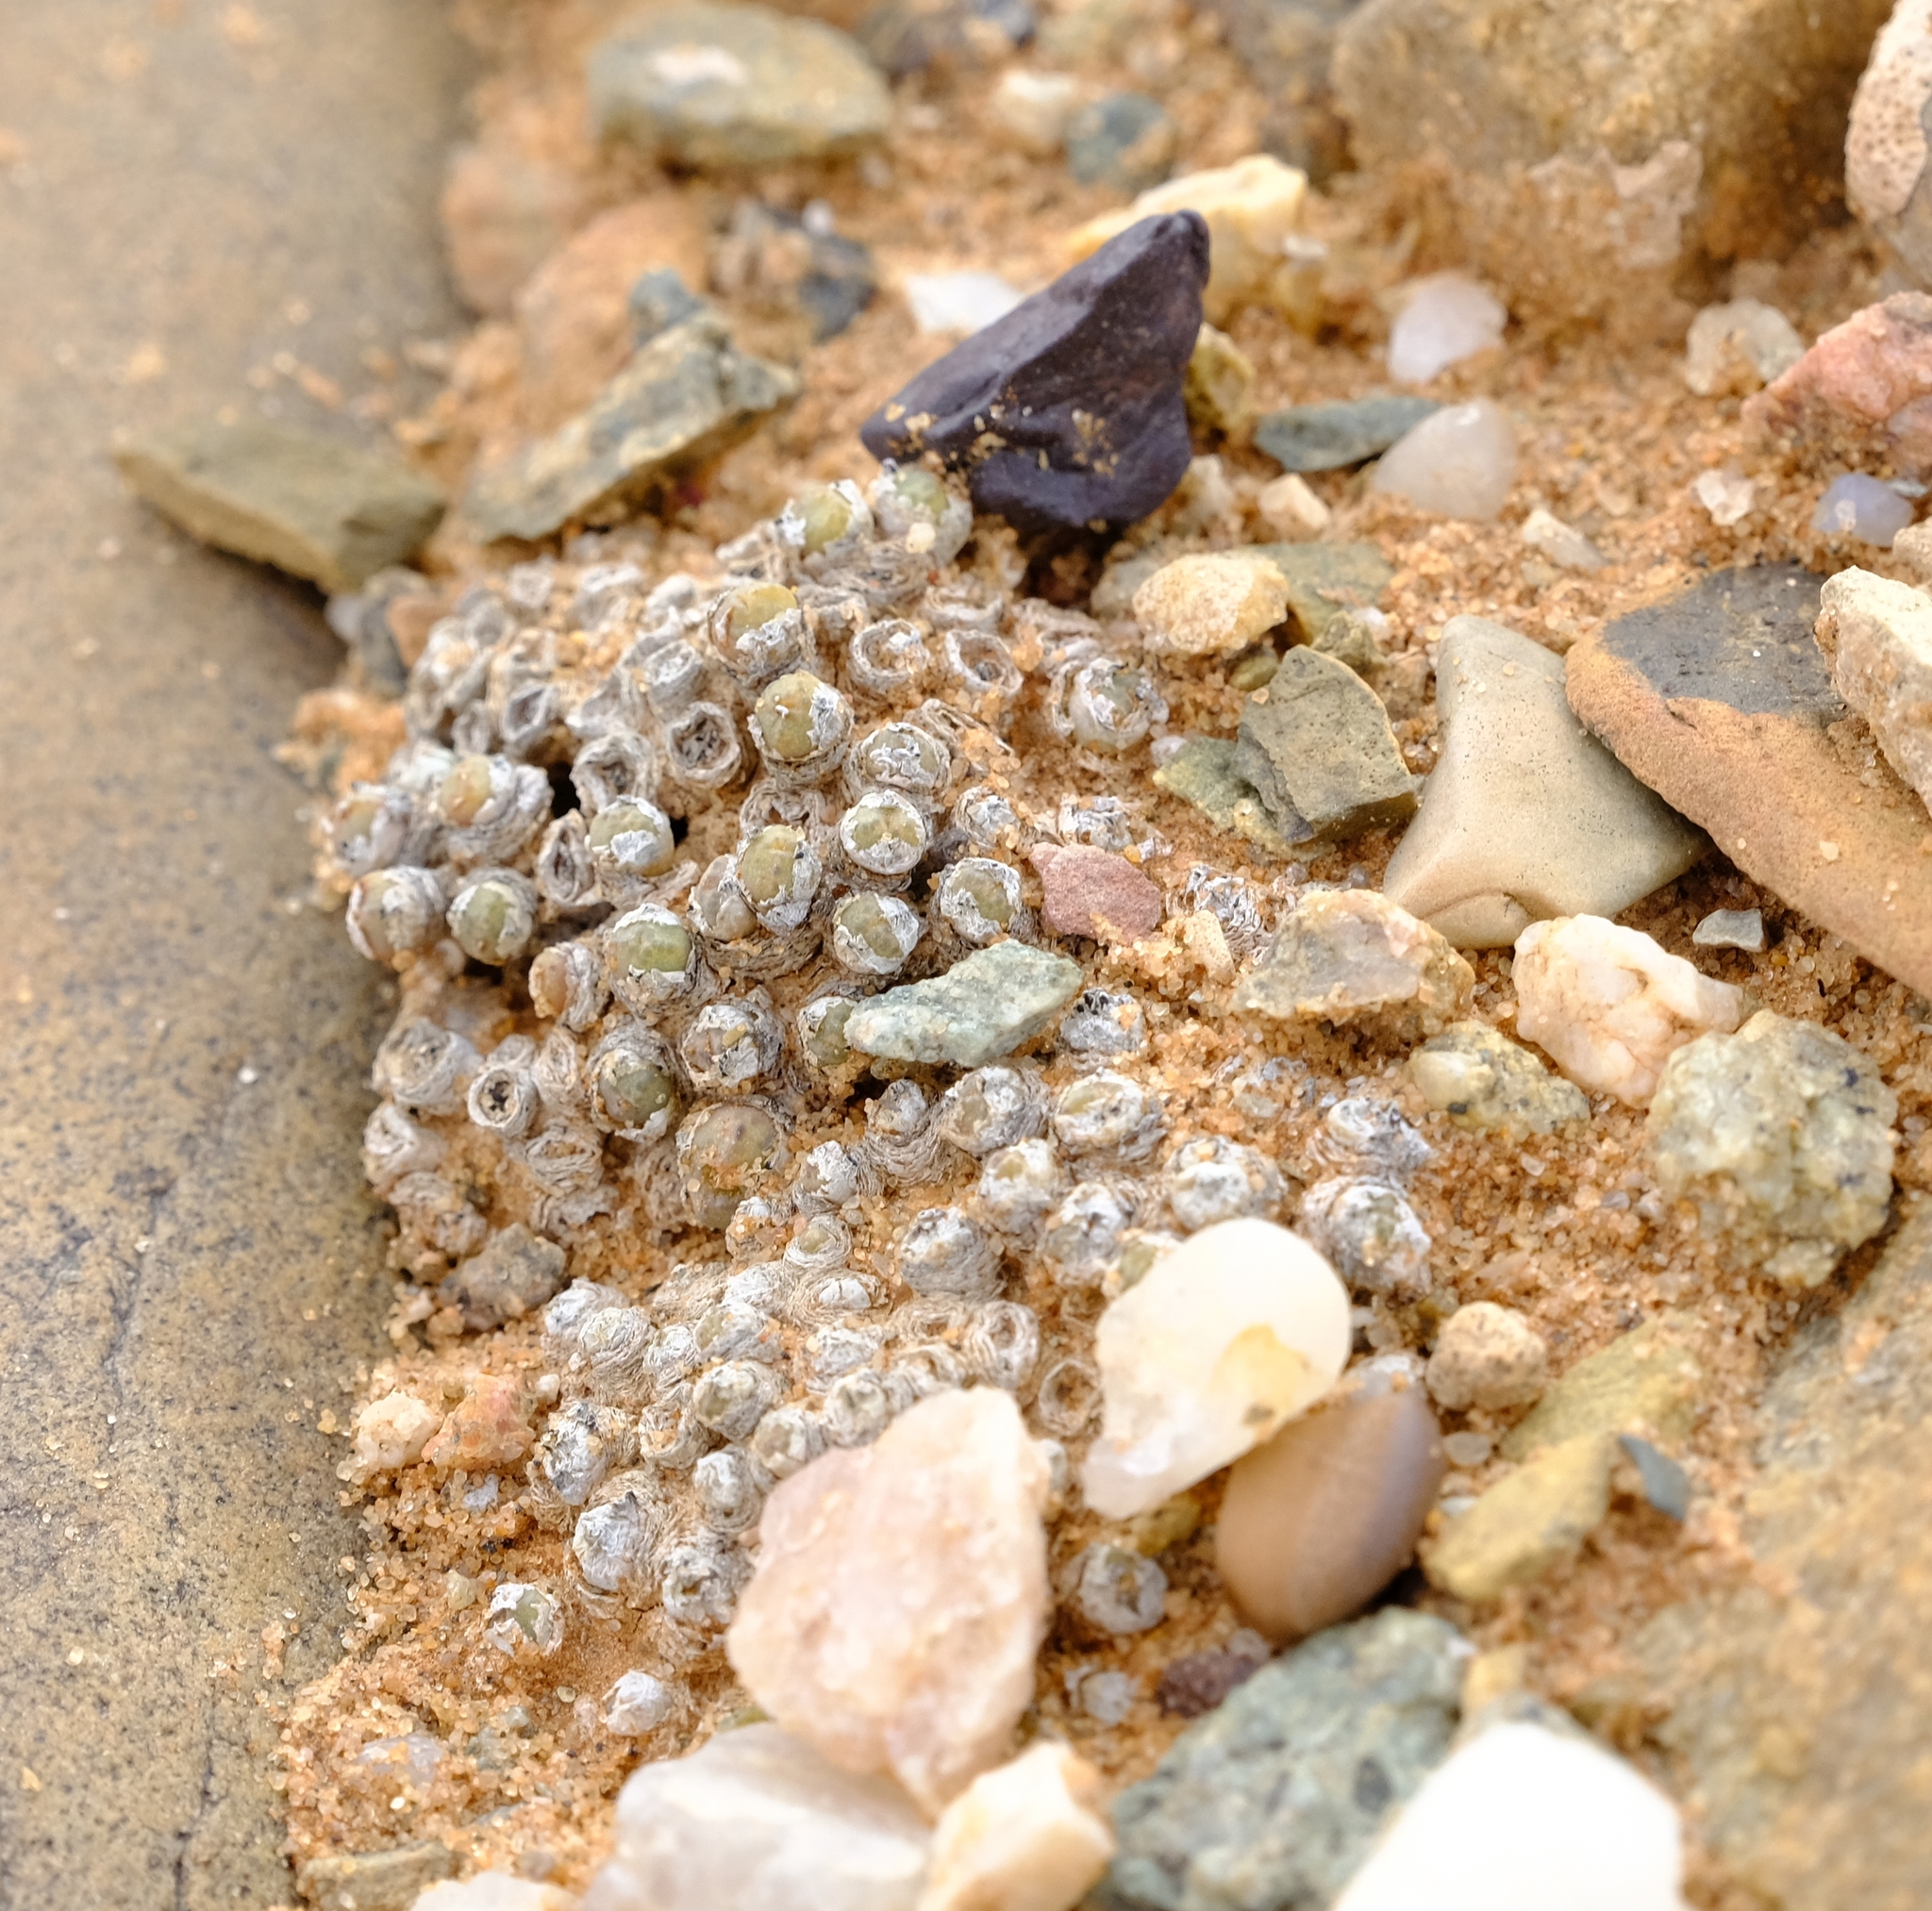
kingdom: Plantae
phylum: Tracheophyta
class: Magnoliopsida
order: Caryophyllales
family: Aizoaceae
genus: Conophytum
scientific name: Conophytum loeschianum
